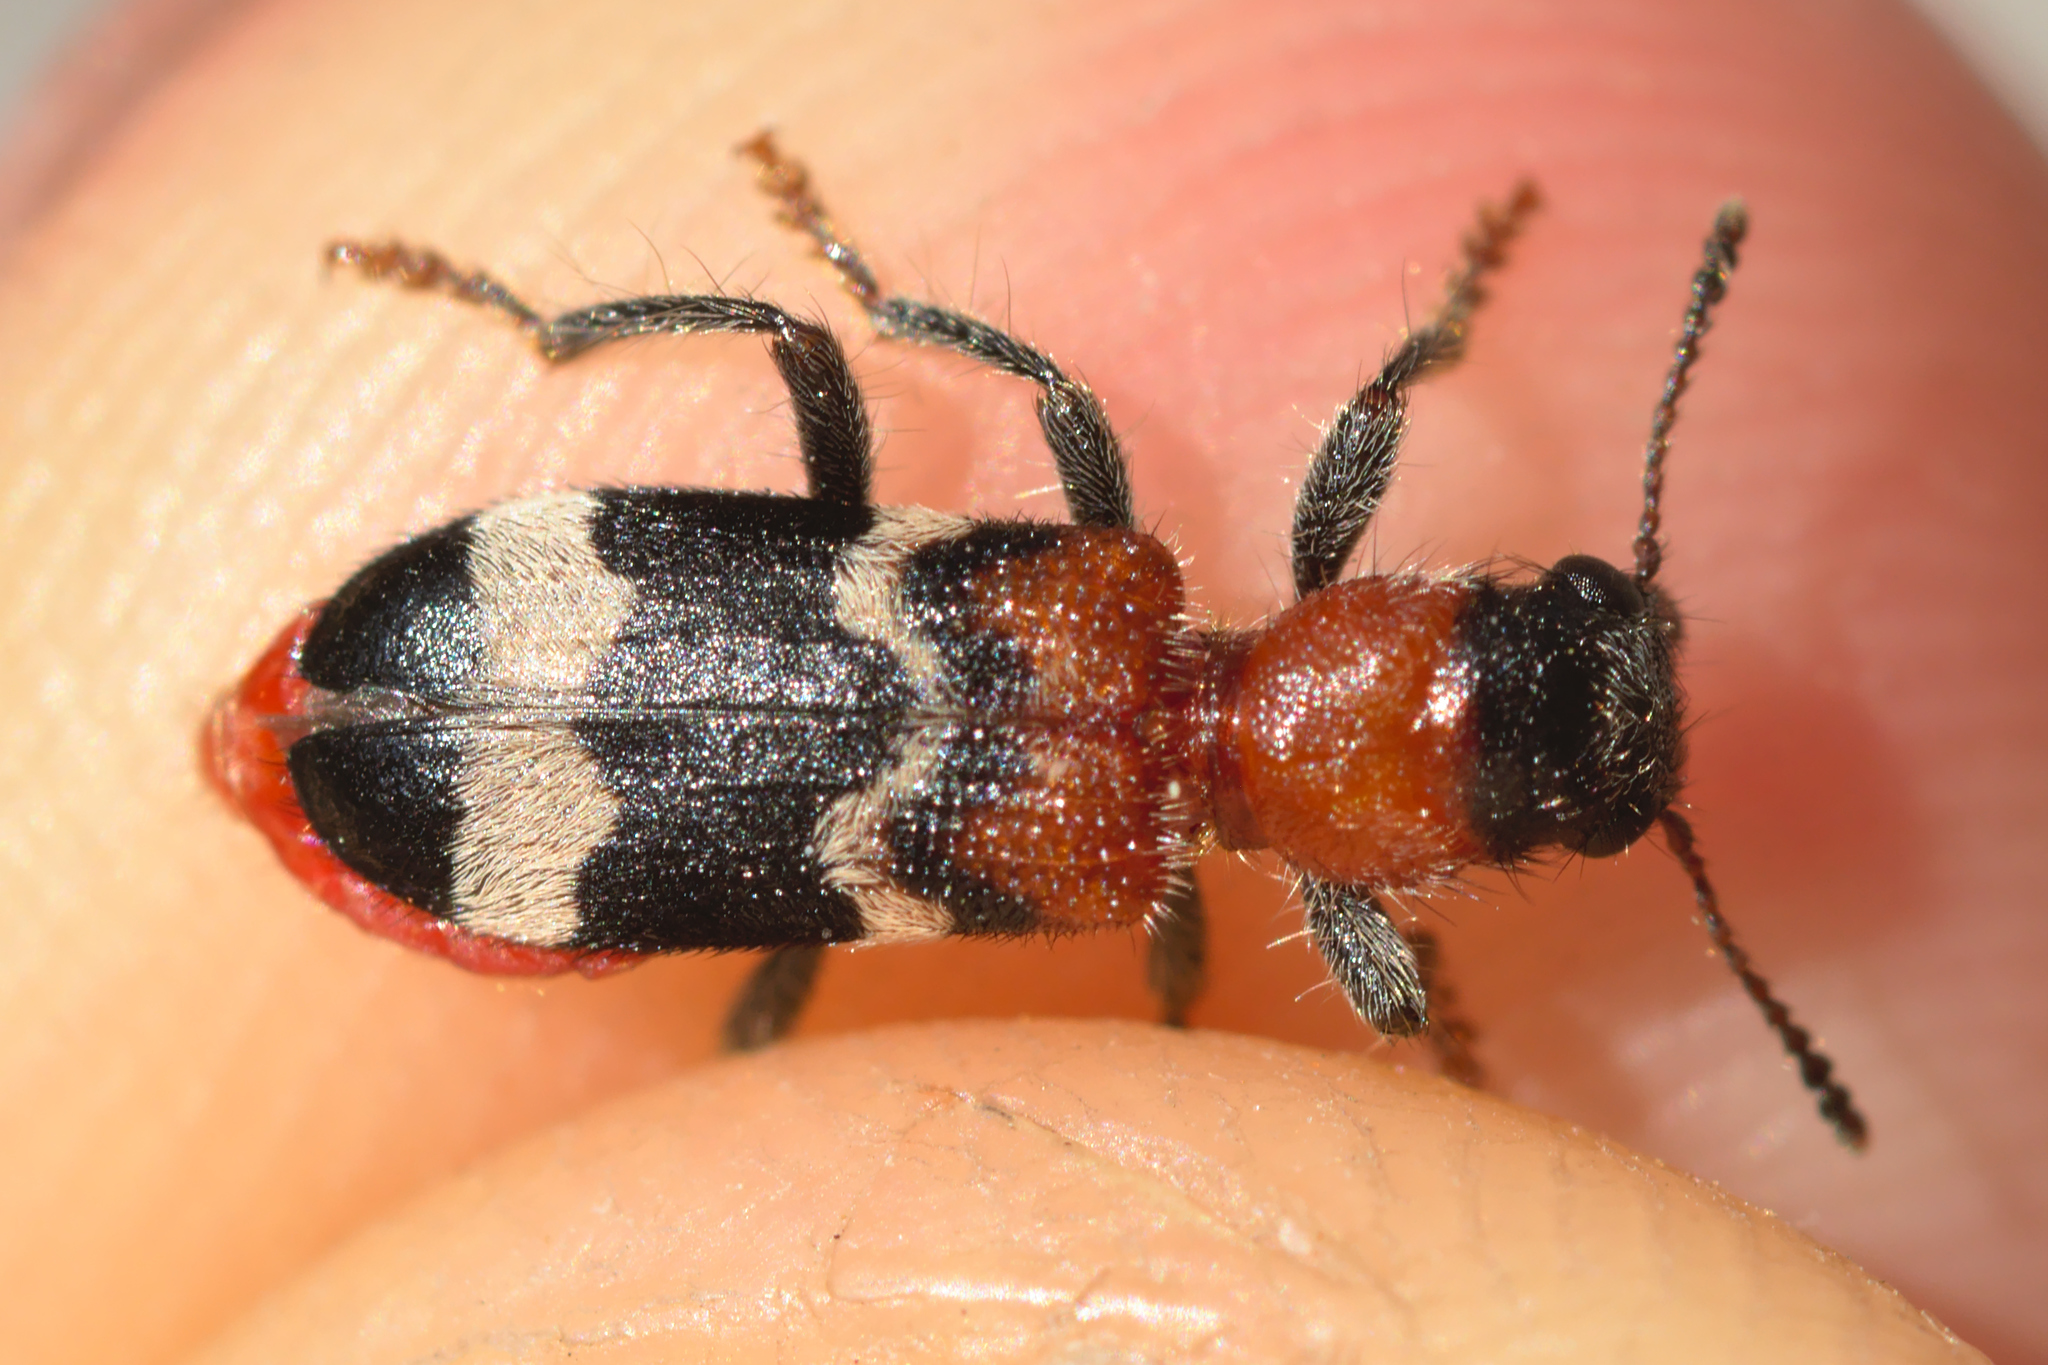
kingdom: Animalia
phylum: Arthropoda
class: Insecta
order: Coleoptera
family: Cleridae
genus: Thanasimus
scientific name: Thanasimus formicarius
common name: Ant beetle
